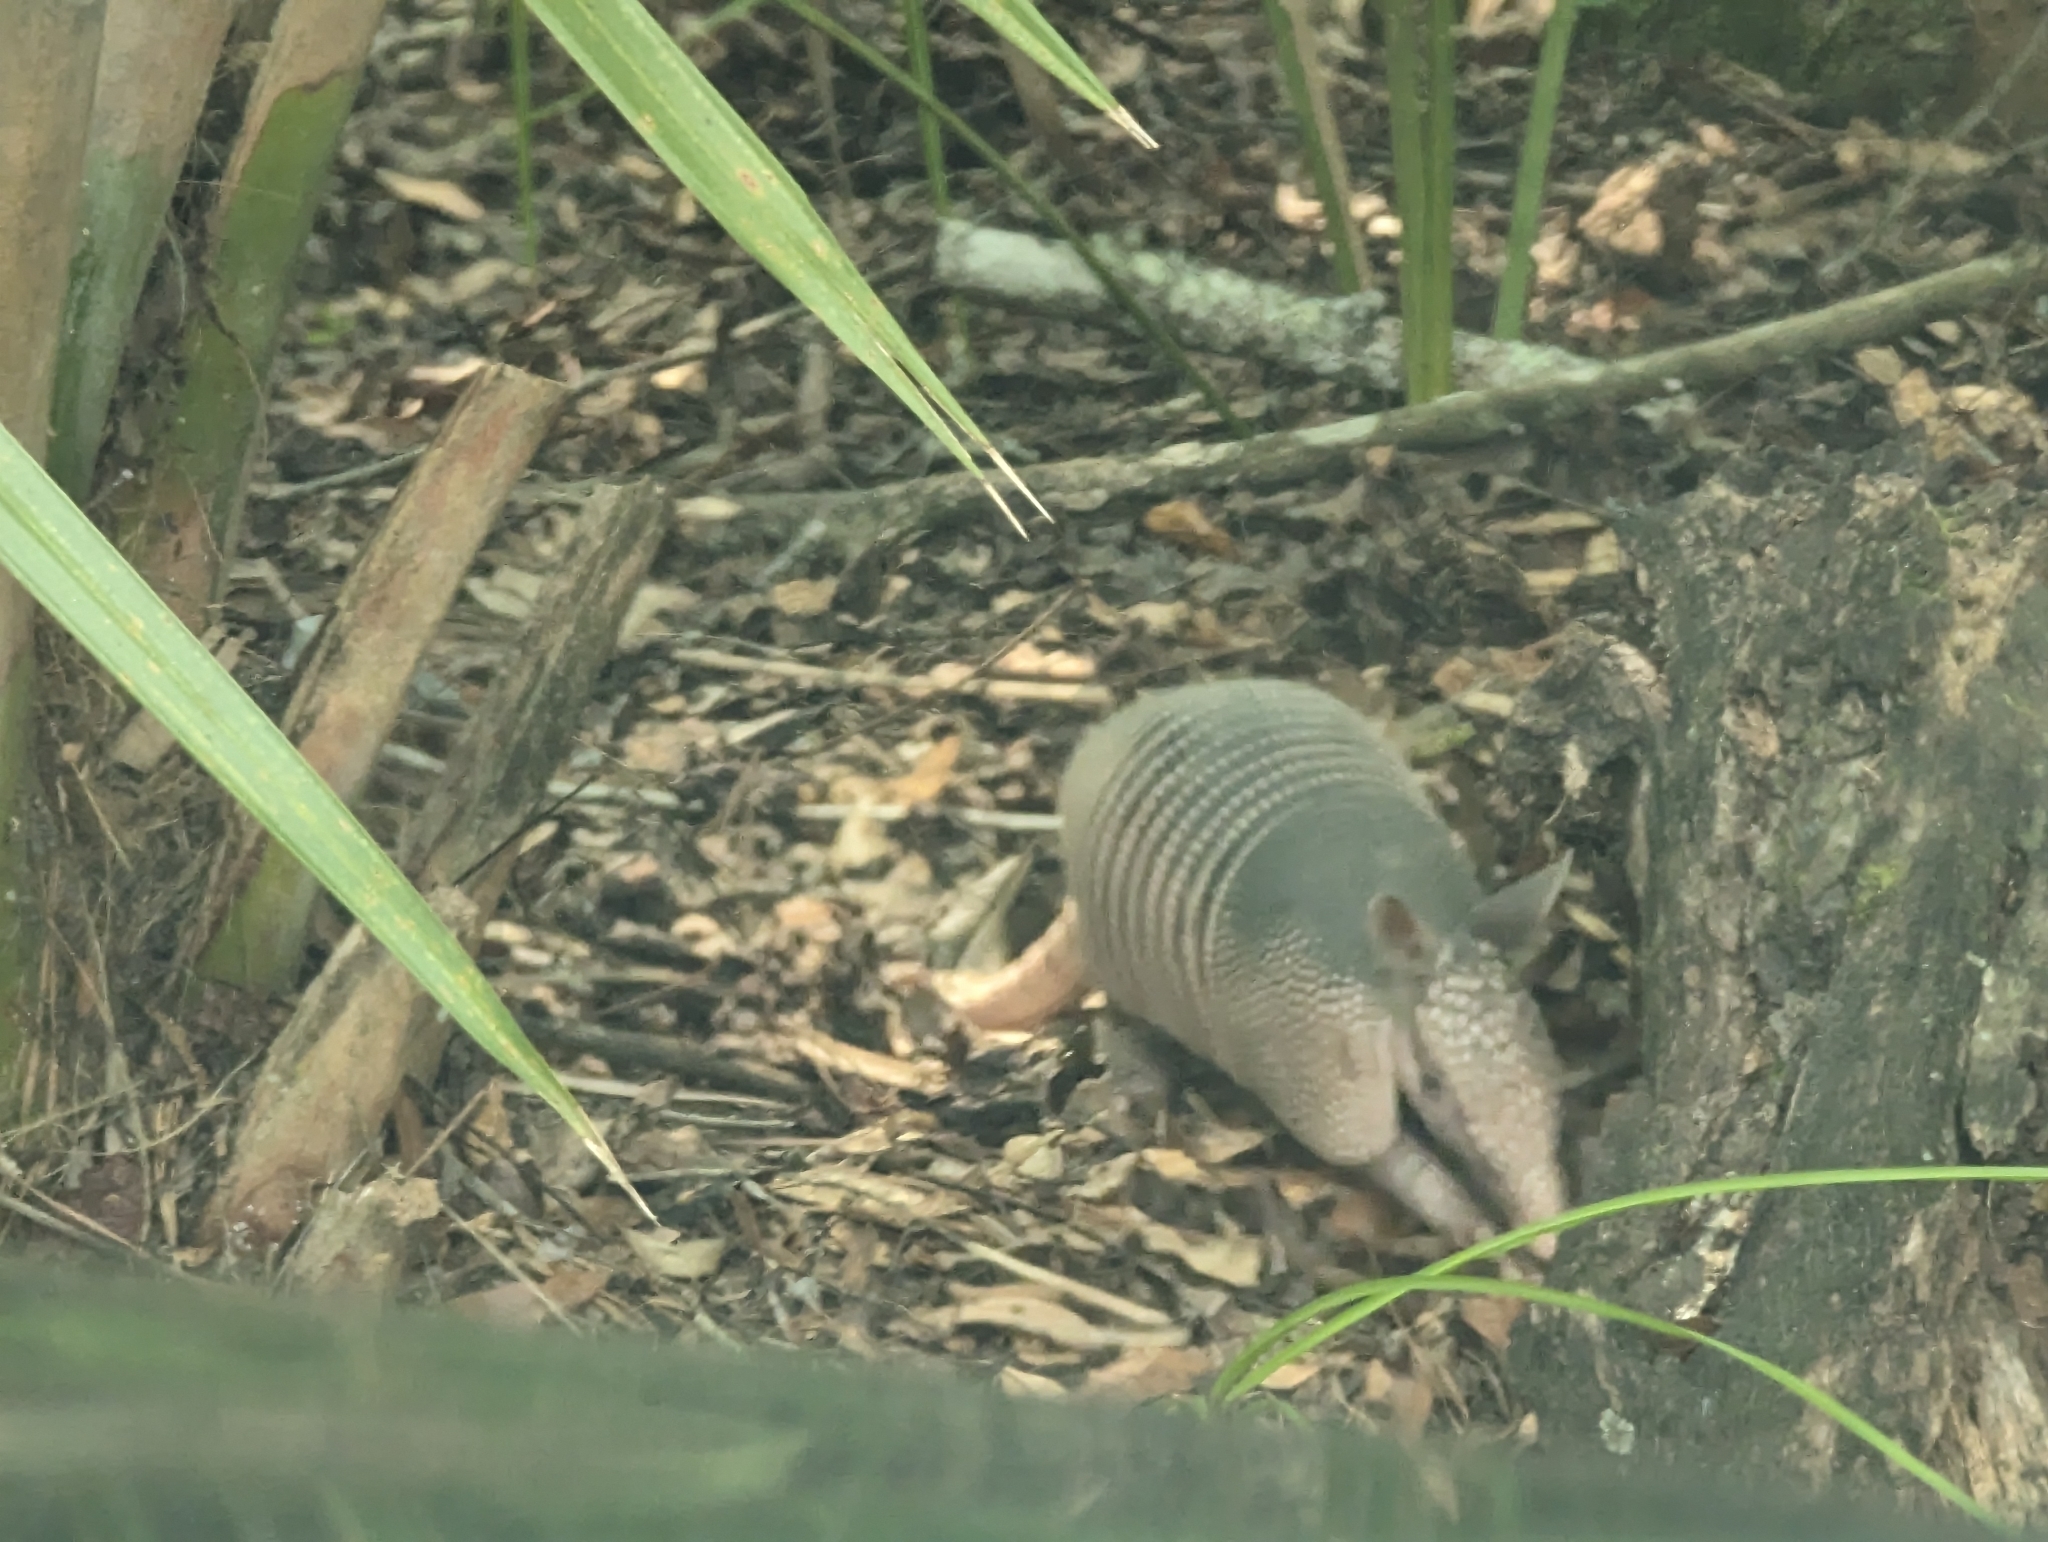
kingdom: Animalia
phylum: Chordata
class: Mammalia
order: Cingulata
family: Dasypodidae
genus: Dasypus
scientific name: Dasypus novemcinctus
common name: Nine-banded armadillo
